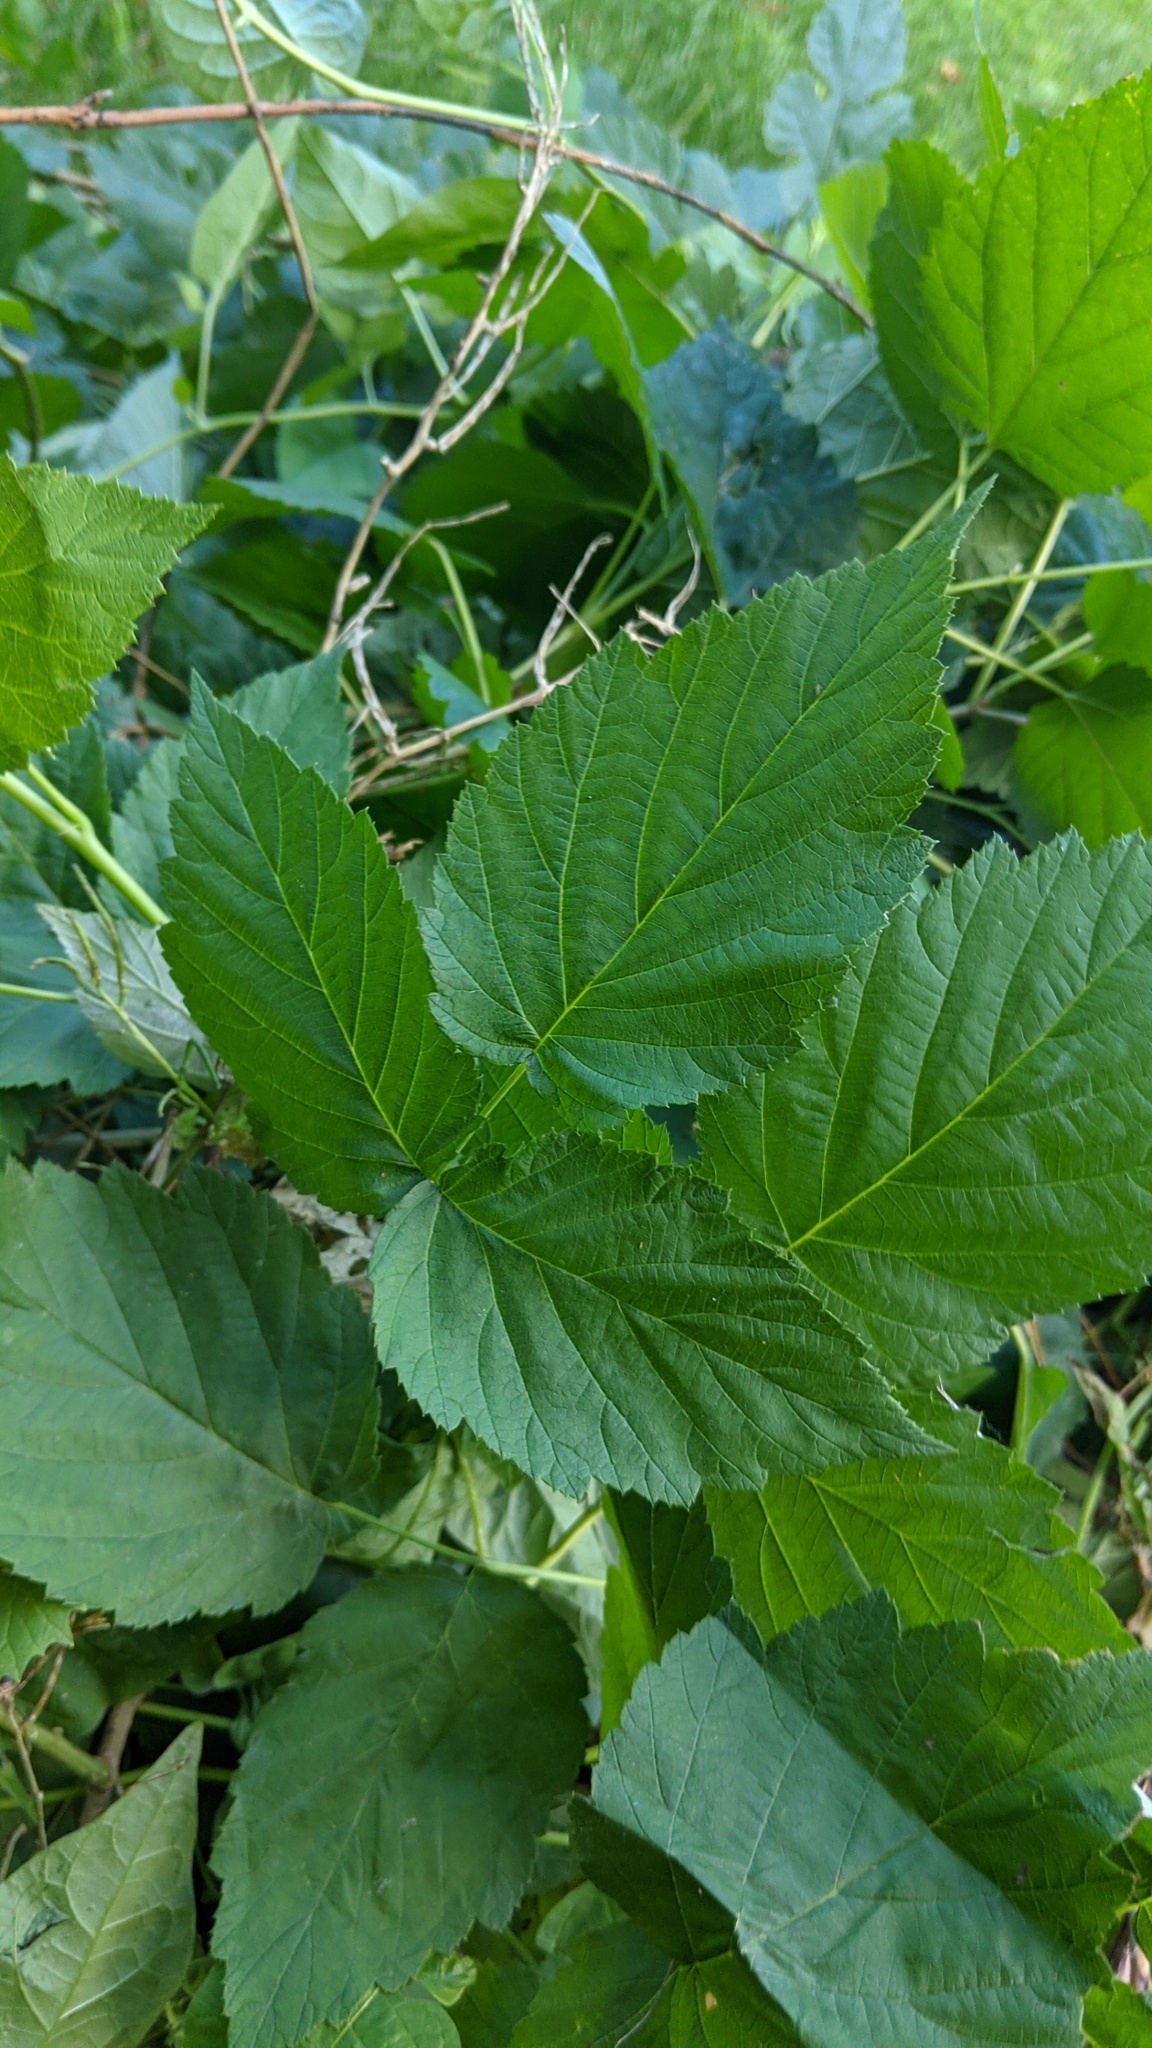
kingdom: Plantae
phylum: Tracheophyta
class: Magnoliopsida
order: Rosales
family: Rosaceae
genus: Rubus
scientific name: Rubus occidentalis
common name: Black raspberry
